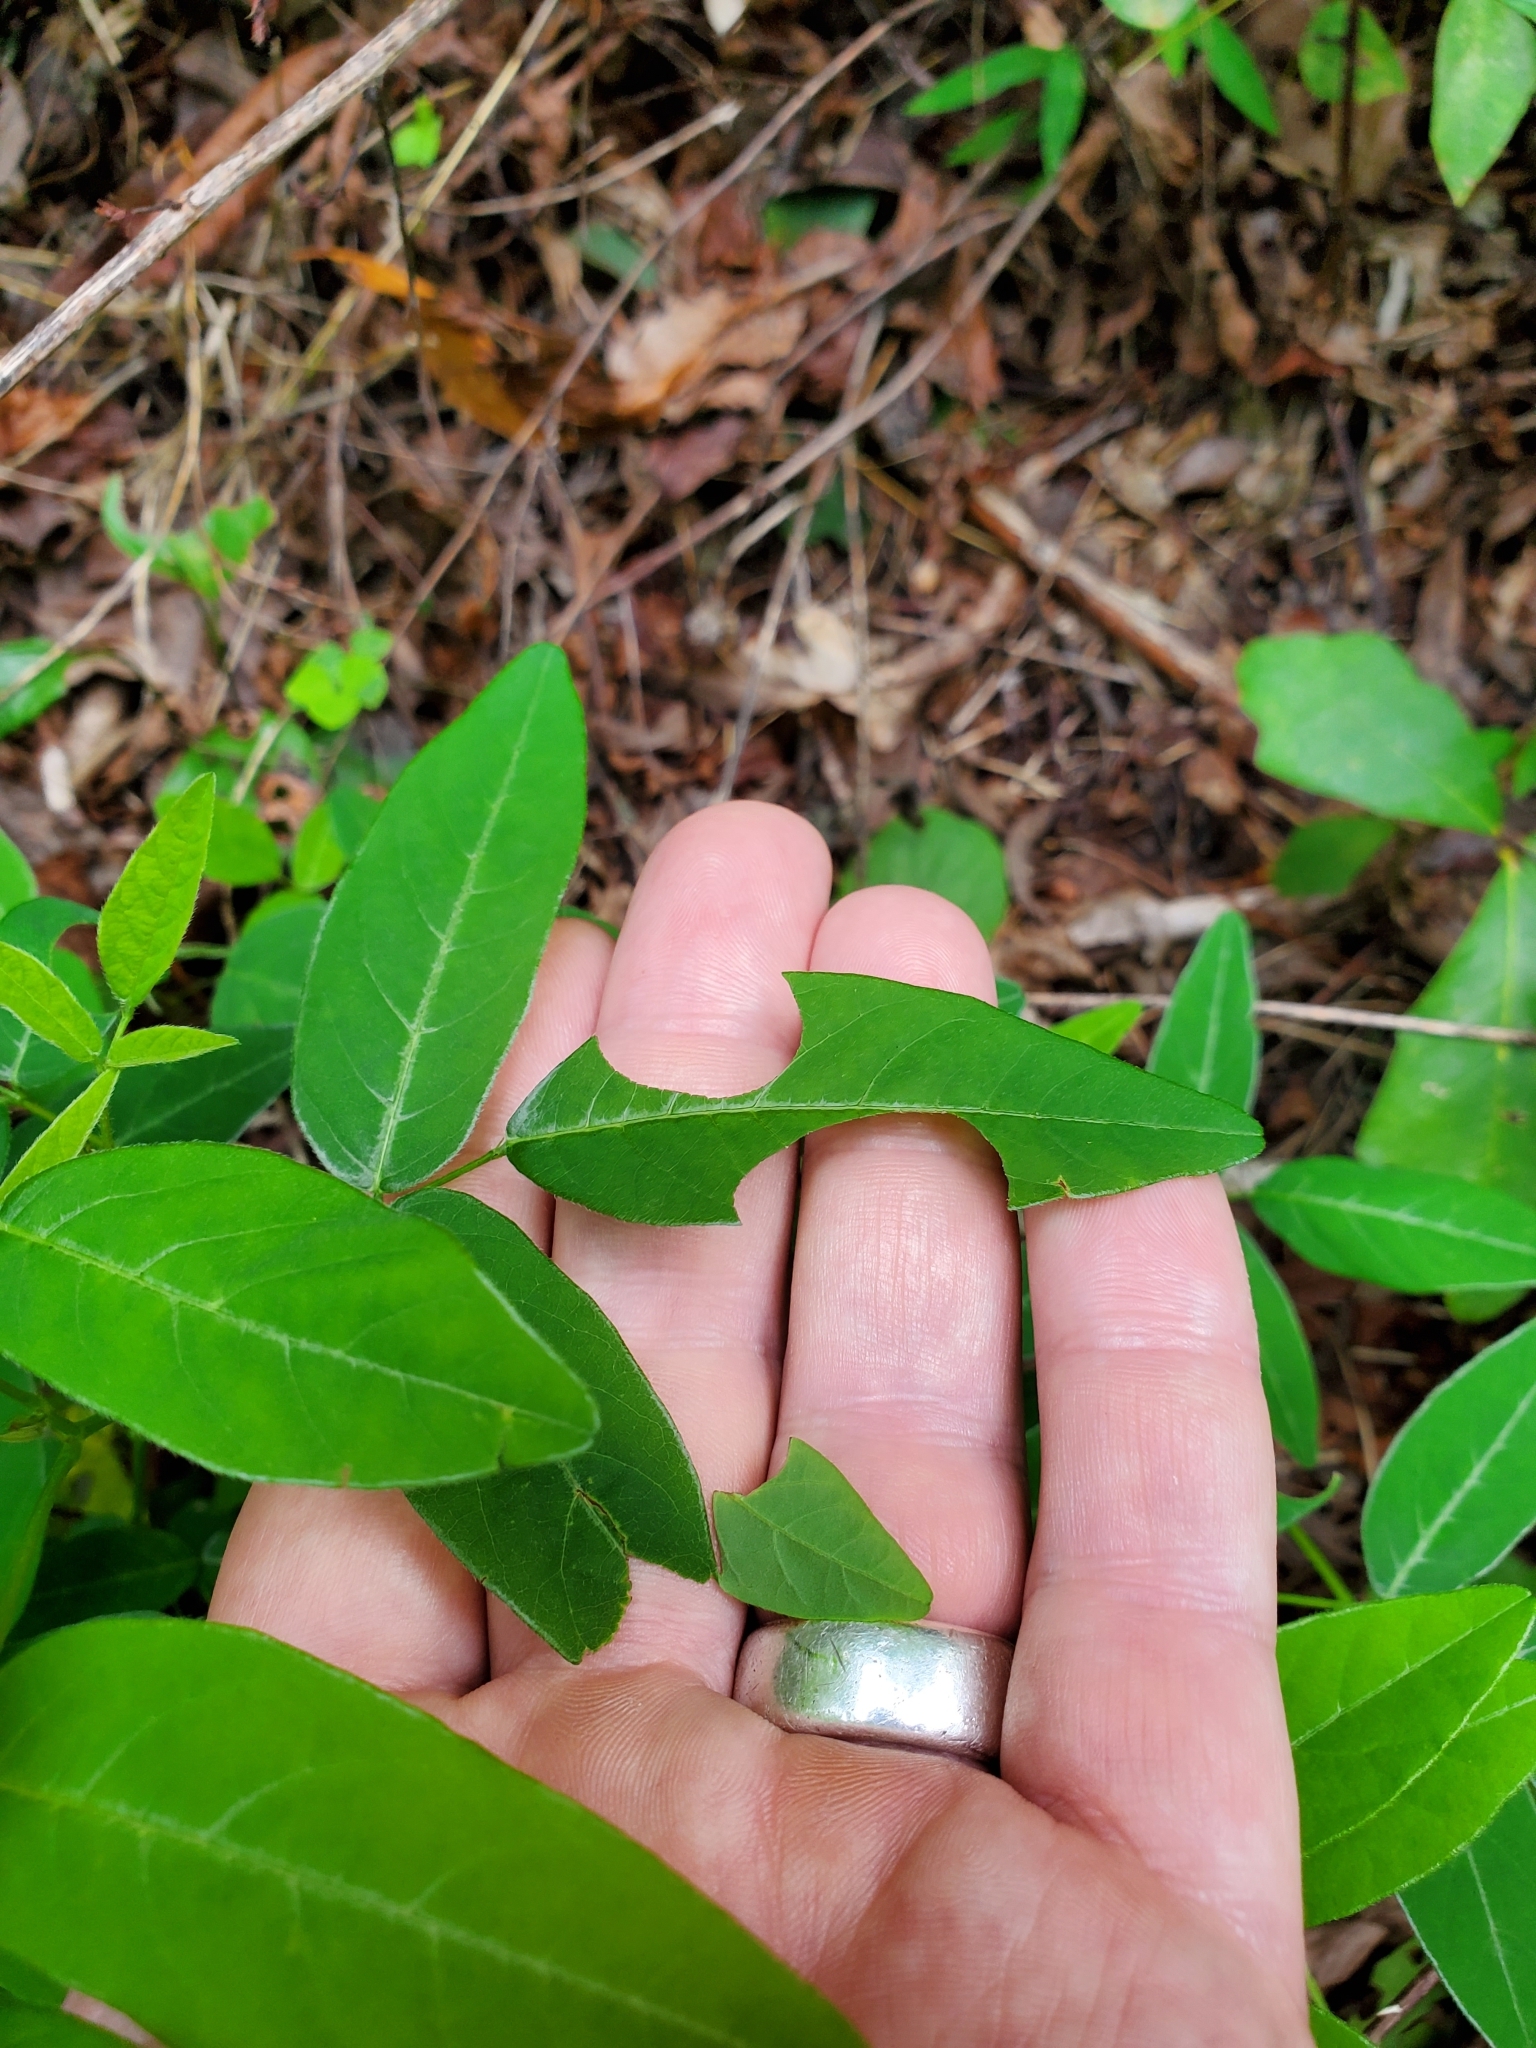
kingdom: Plantae
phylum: Tracheophyta
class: Magnoliopsida
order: Fabales
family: Fabaceae
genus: Desmodium
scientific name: Desmodium paniculatum
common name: Panicled tick-clover
